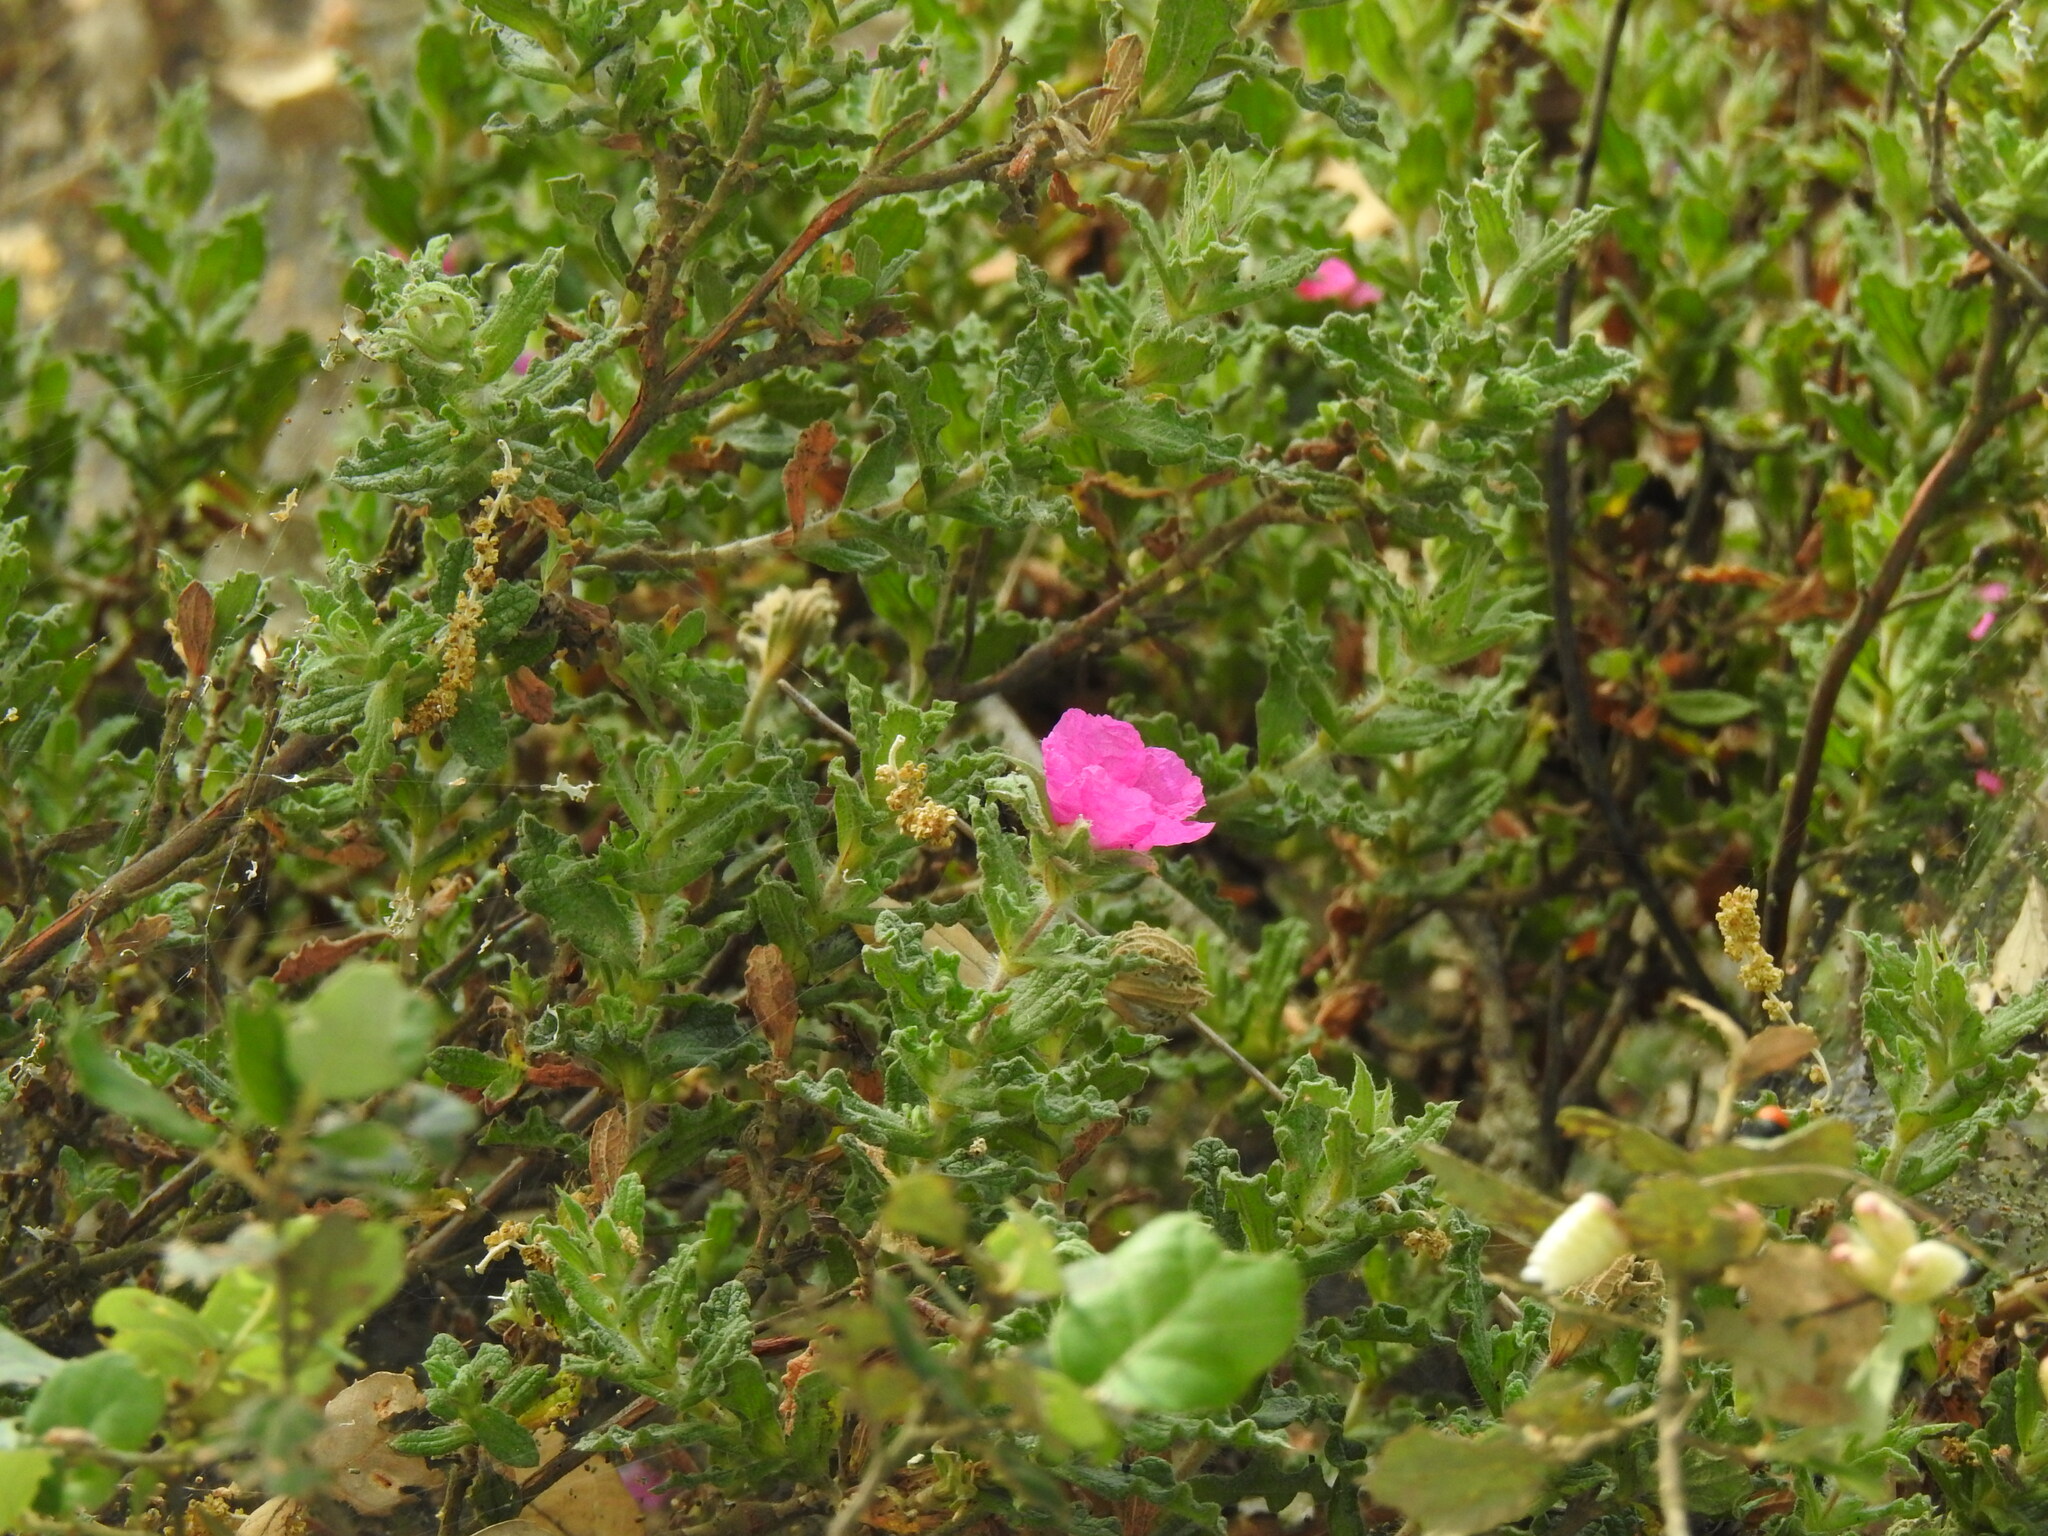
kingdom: Plantae
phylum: Tracheophyta
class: Magnoliopsida
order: Malvales
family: Cistaceae
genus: Cistus
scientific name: Cistus crispus
